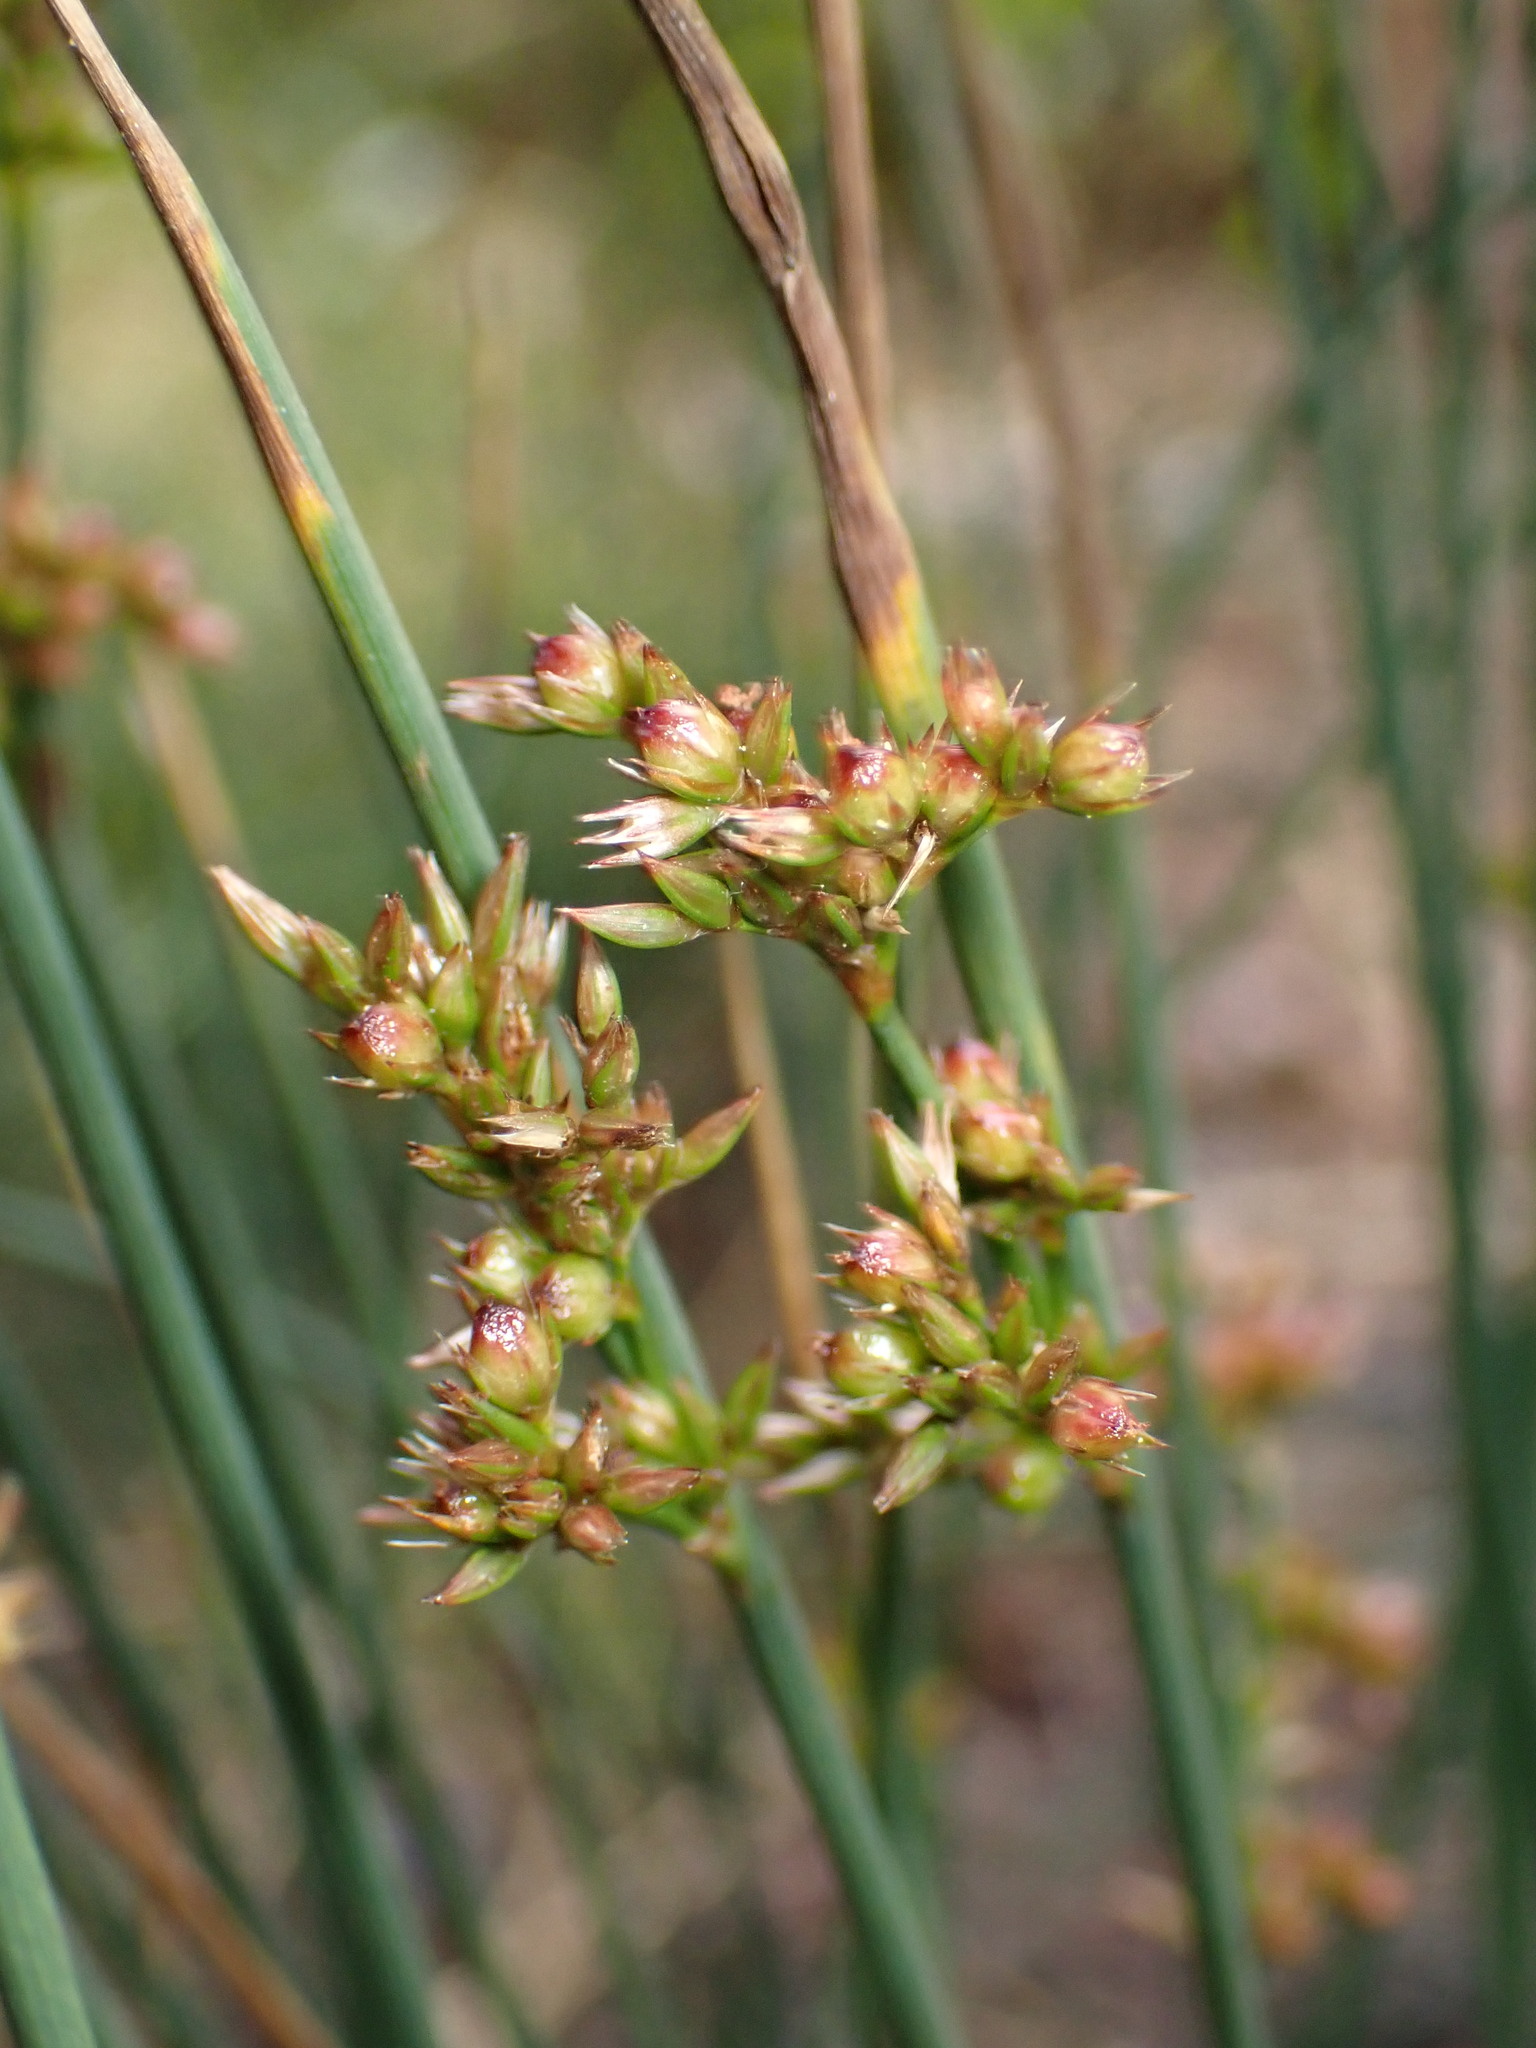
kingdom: Plantae
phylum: Tracheophyta
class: Liliopsida
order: Poales
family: Juncaceae
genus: Juncus
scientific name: Juncus patens
